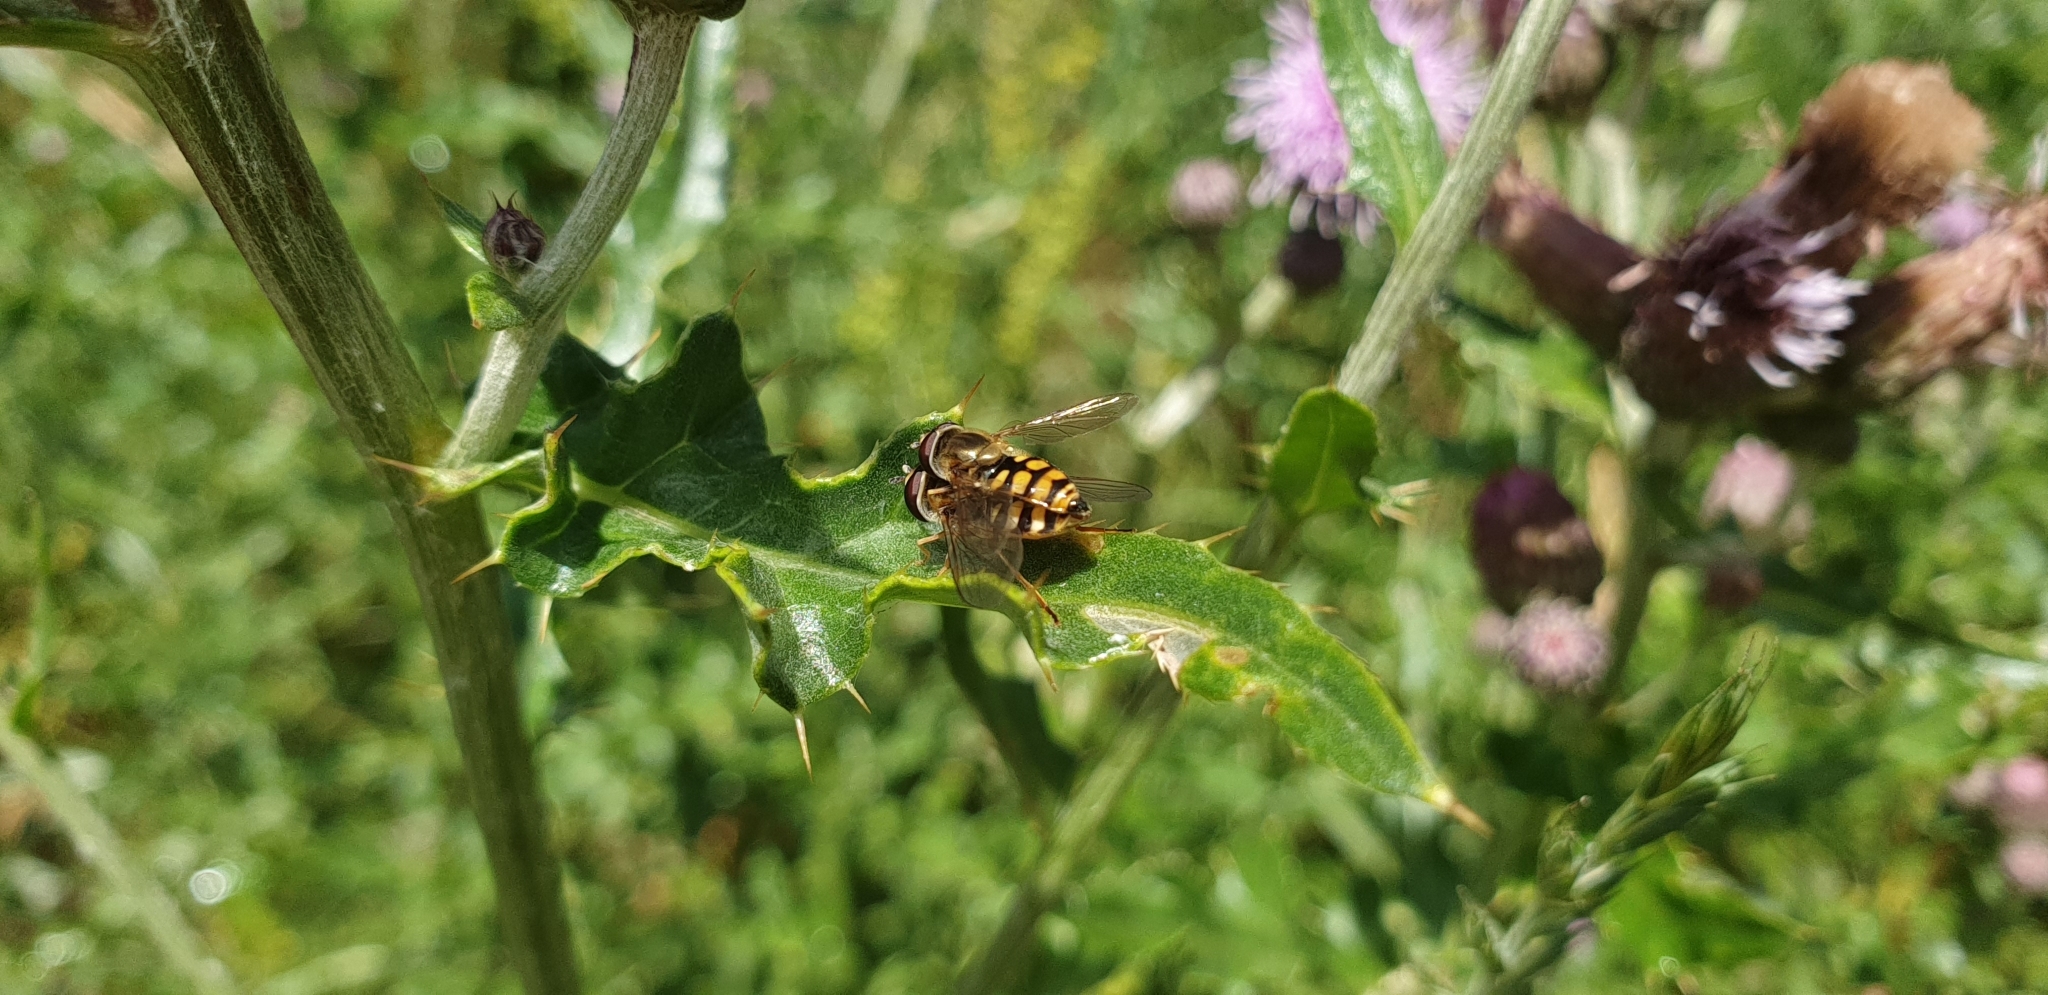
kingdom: Animalia
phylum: Arthropoda
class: Insecta
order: Diptera
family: Syrphidae
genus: Eupeodes
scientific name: Eupeodes corollae
